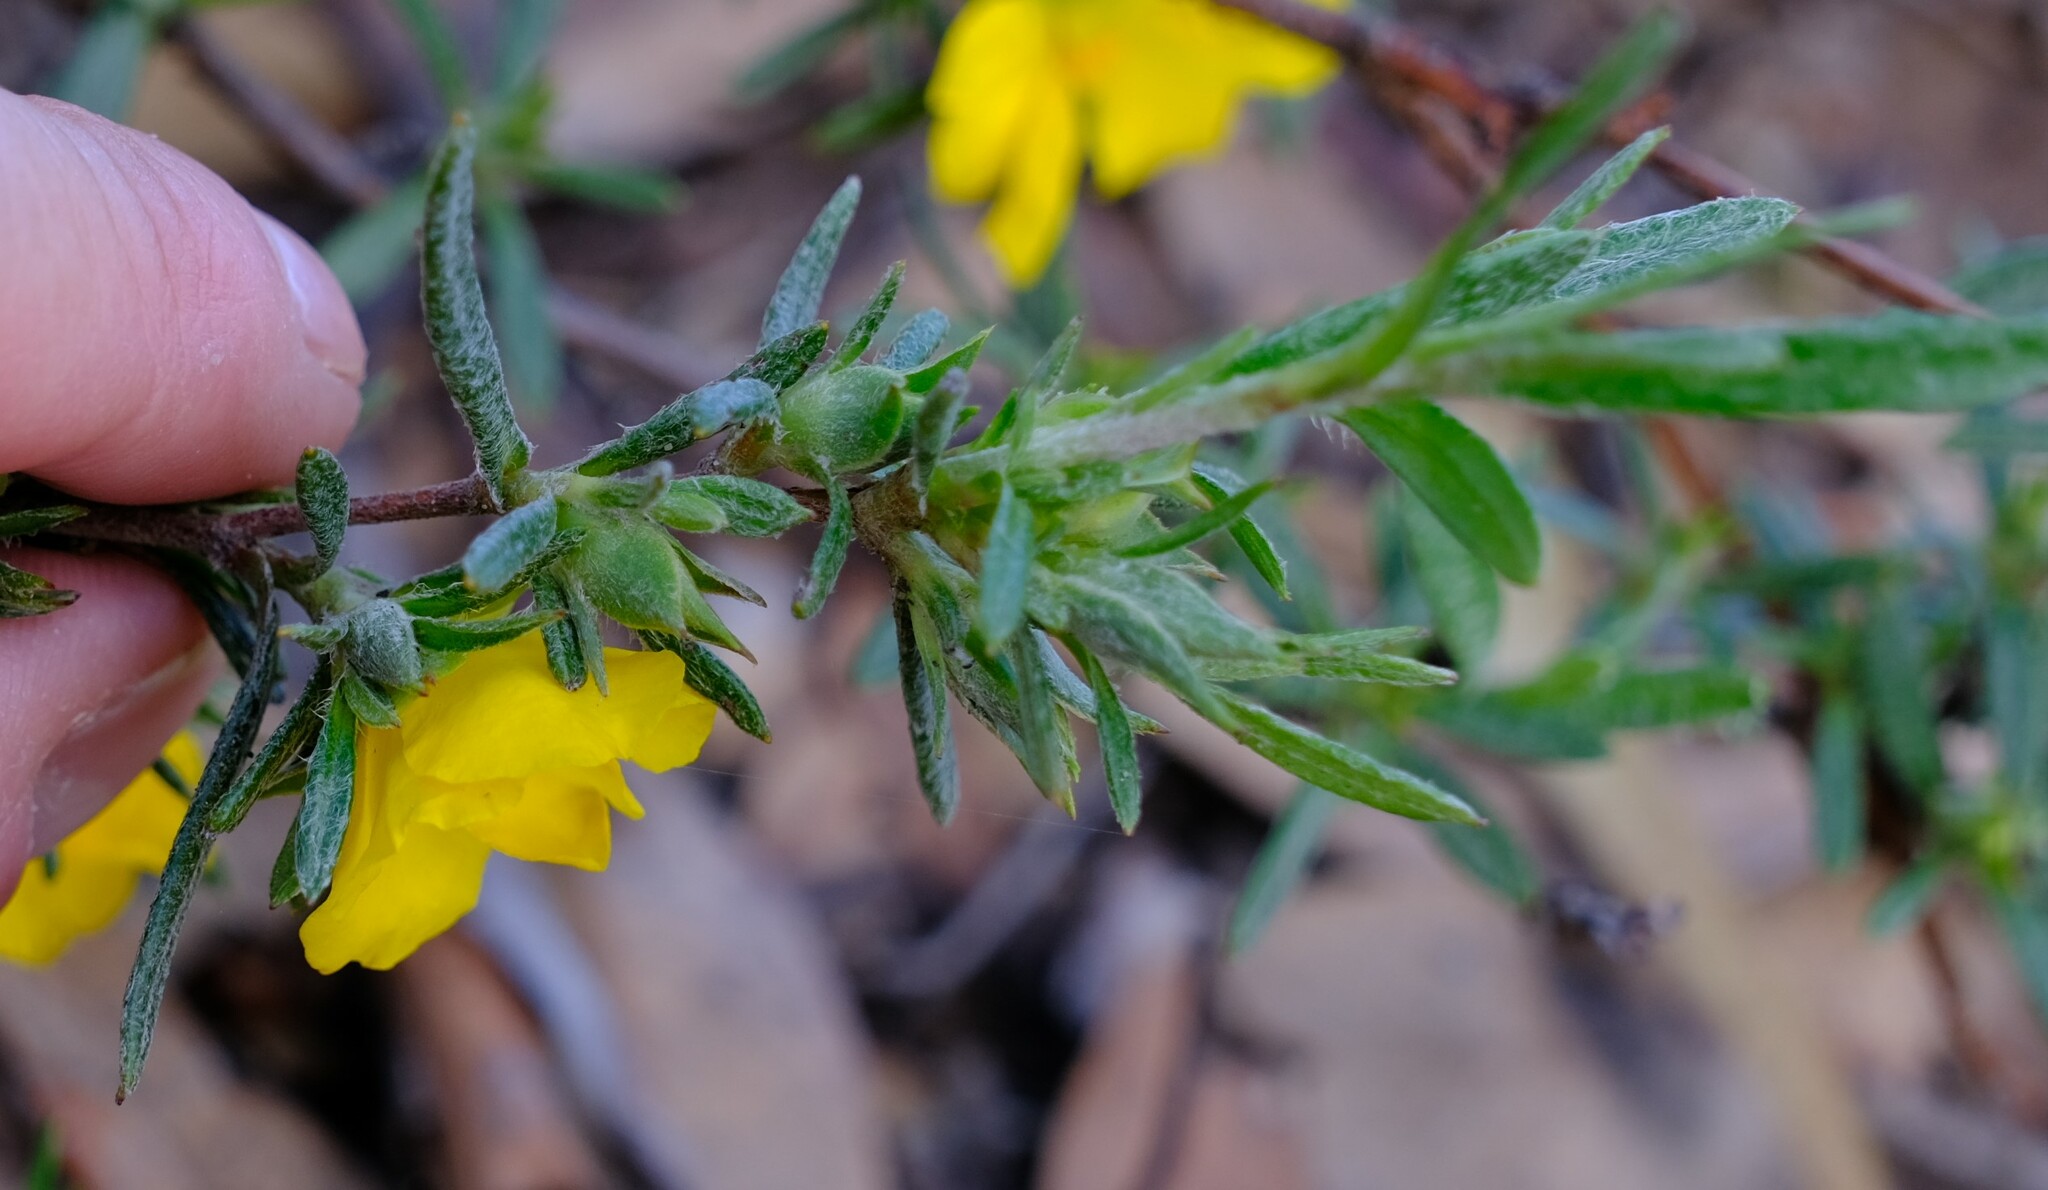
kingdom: Plantae
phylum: Tracheophyta
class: Magnoliopsida
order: Dilleniales
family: Dilleniaceae
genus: Hibbertia
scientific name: Hibbertia squarrosa
